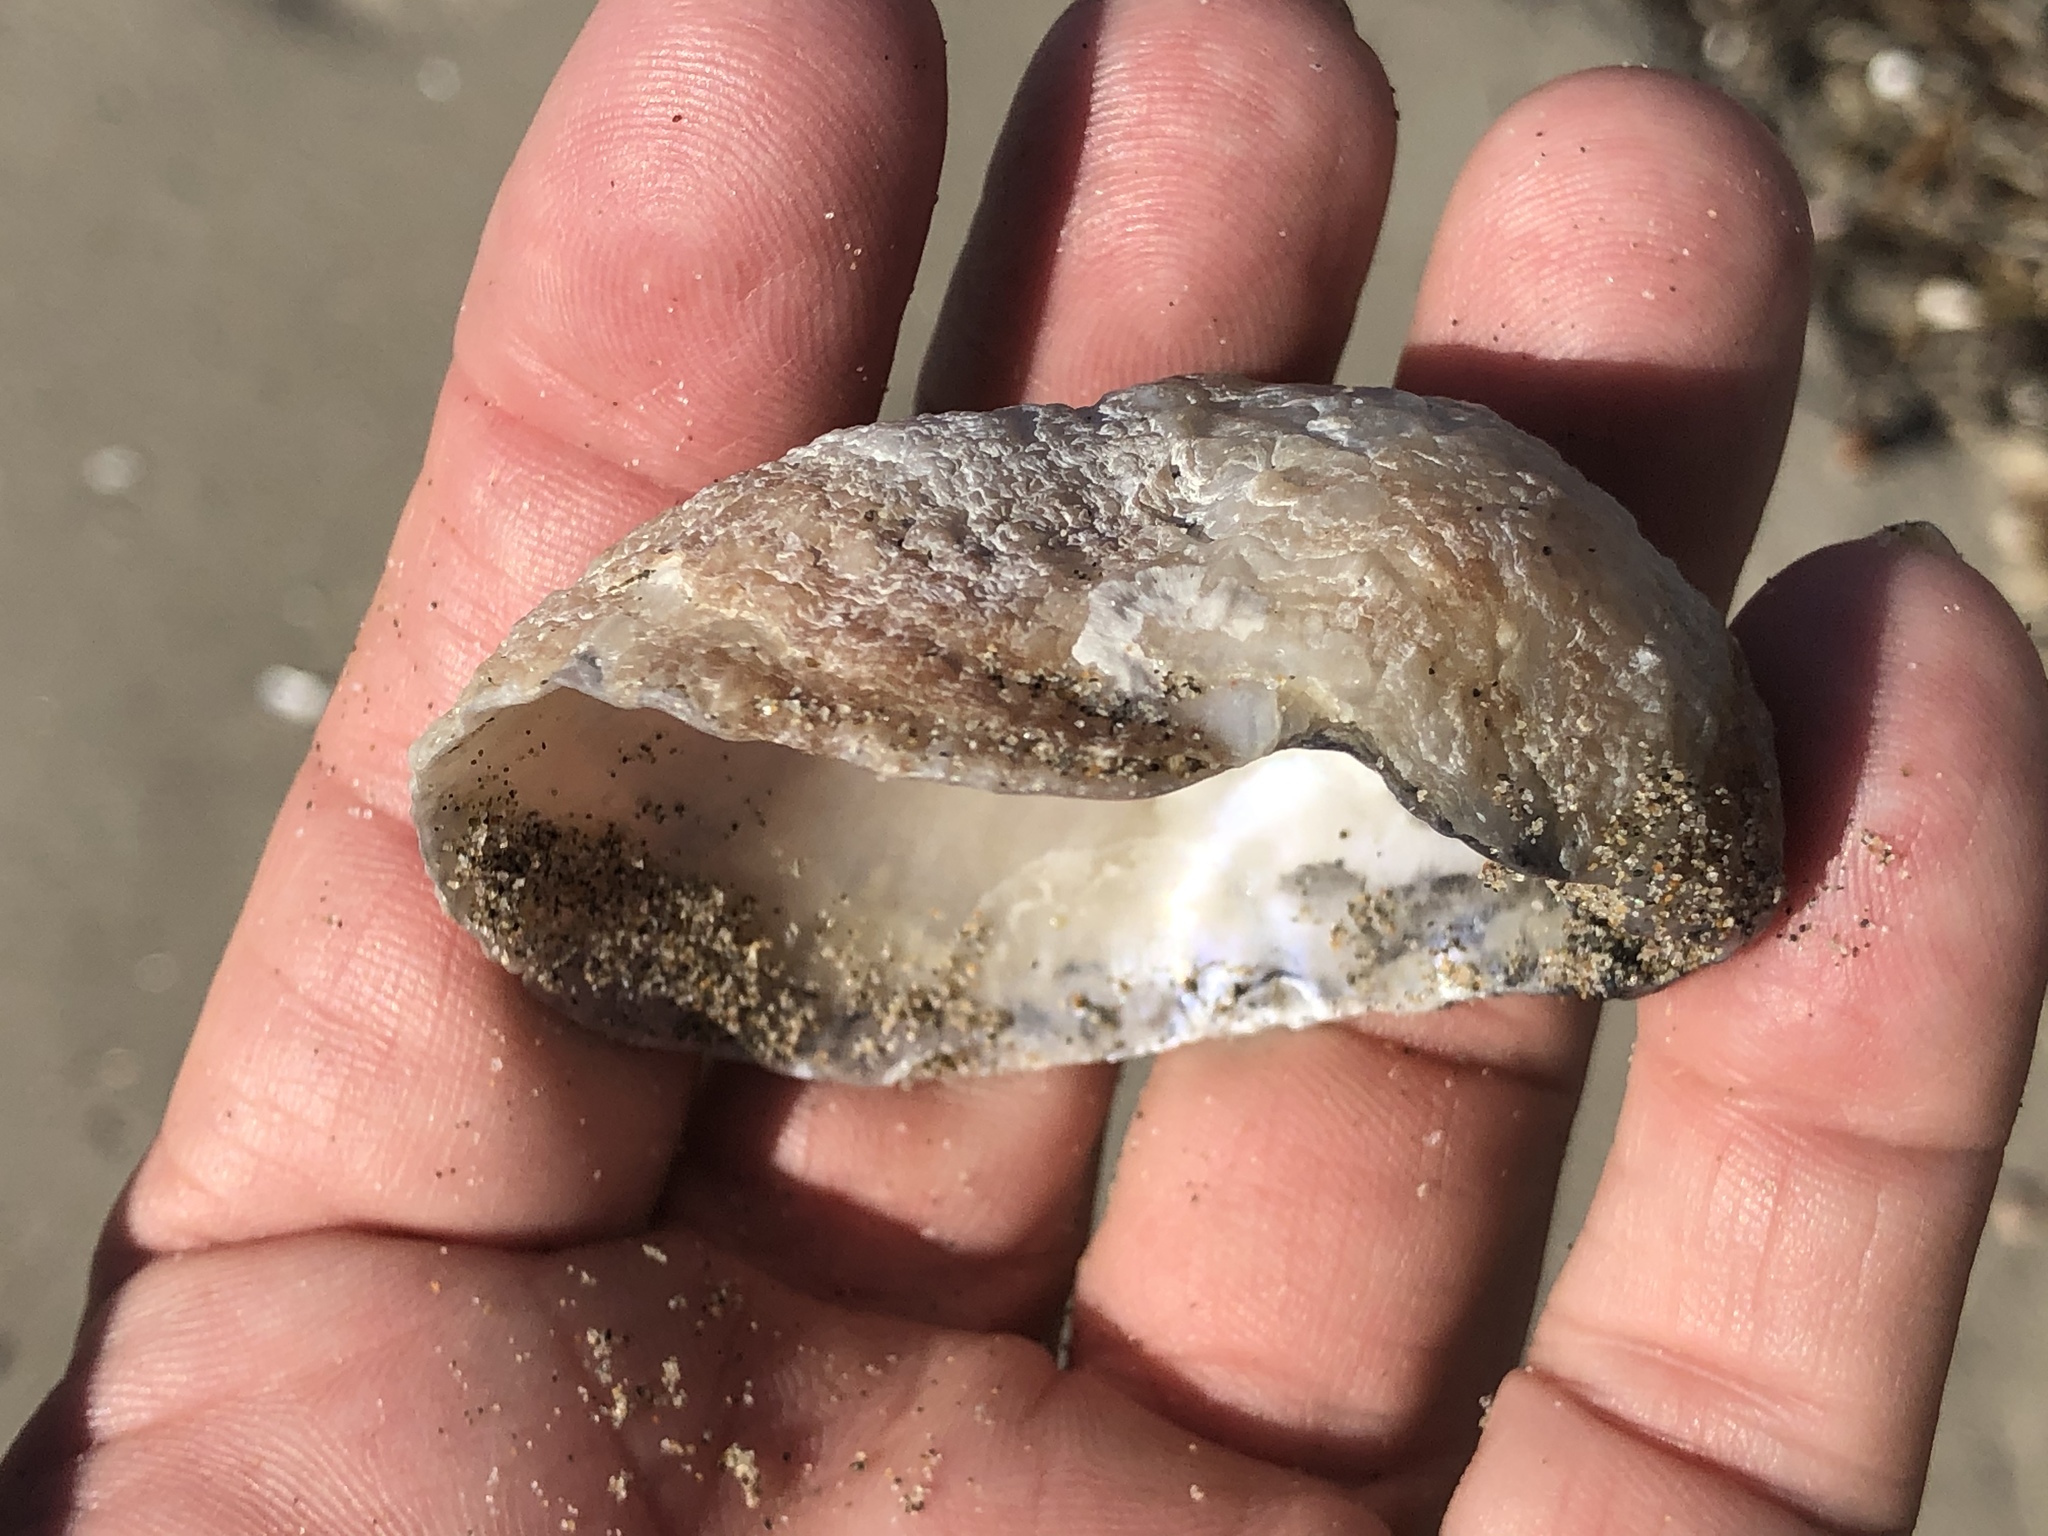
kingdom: Animalia
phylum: Mollusca
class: Bivalvia
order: Pectinida
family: Anomiidae
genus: Pododesmus
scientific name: Pododesmus macrochisma
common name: Alaska jingle
